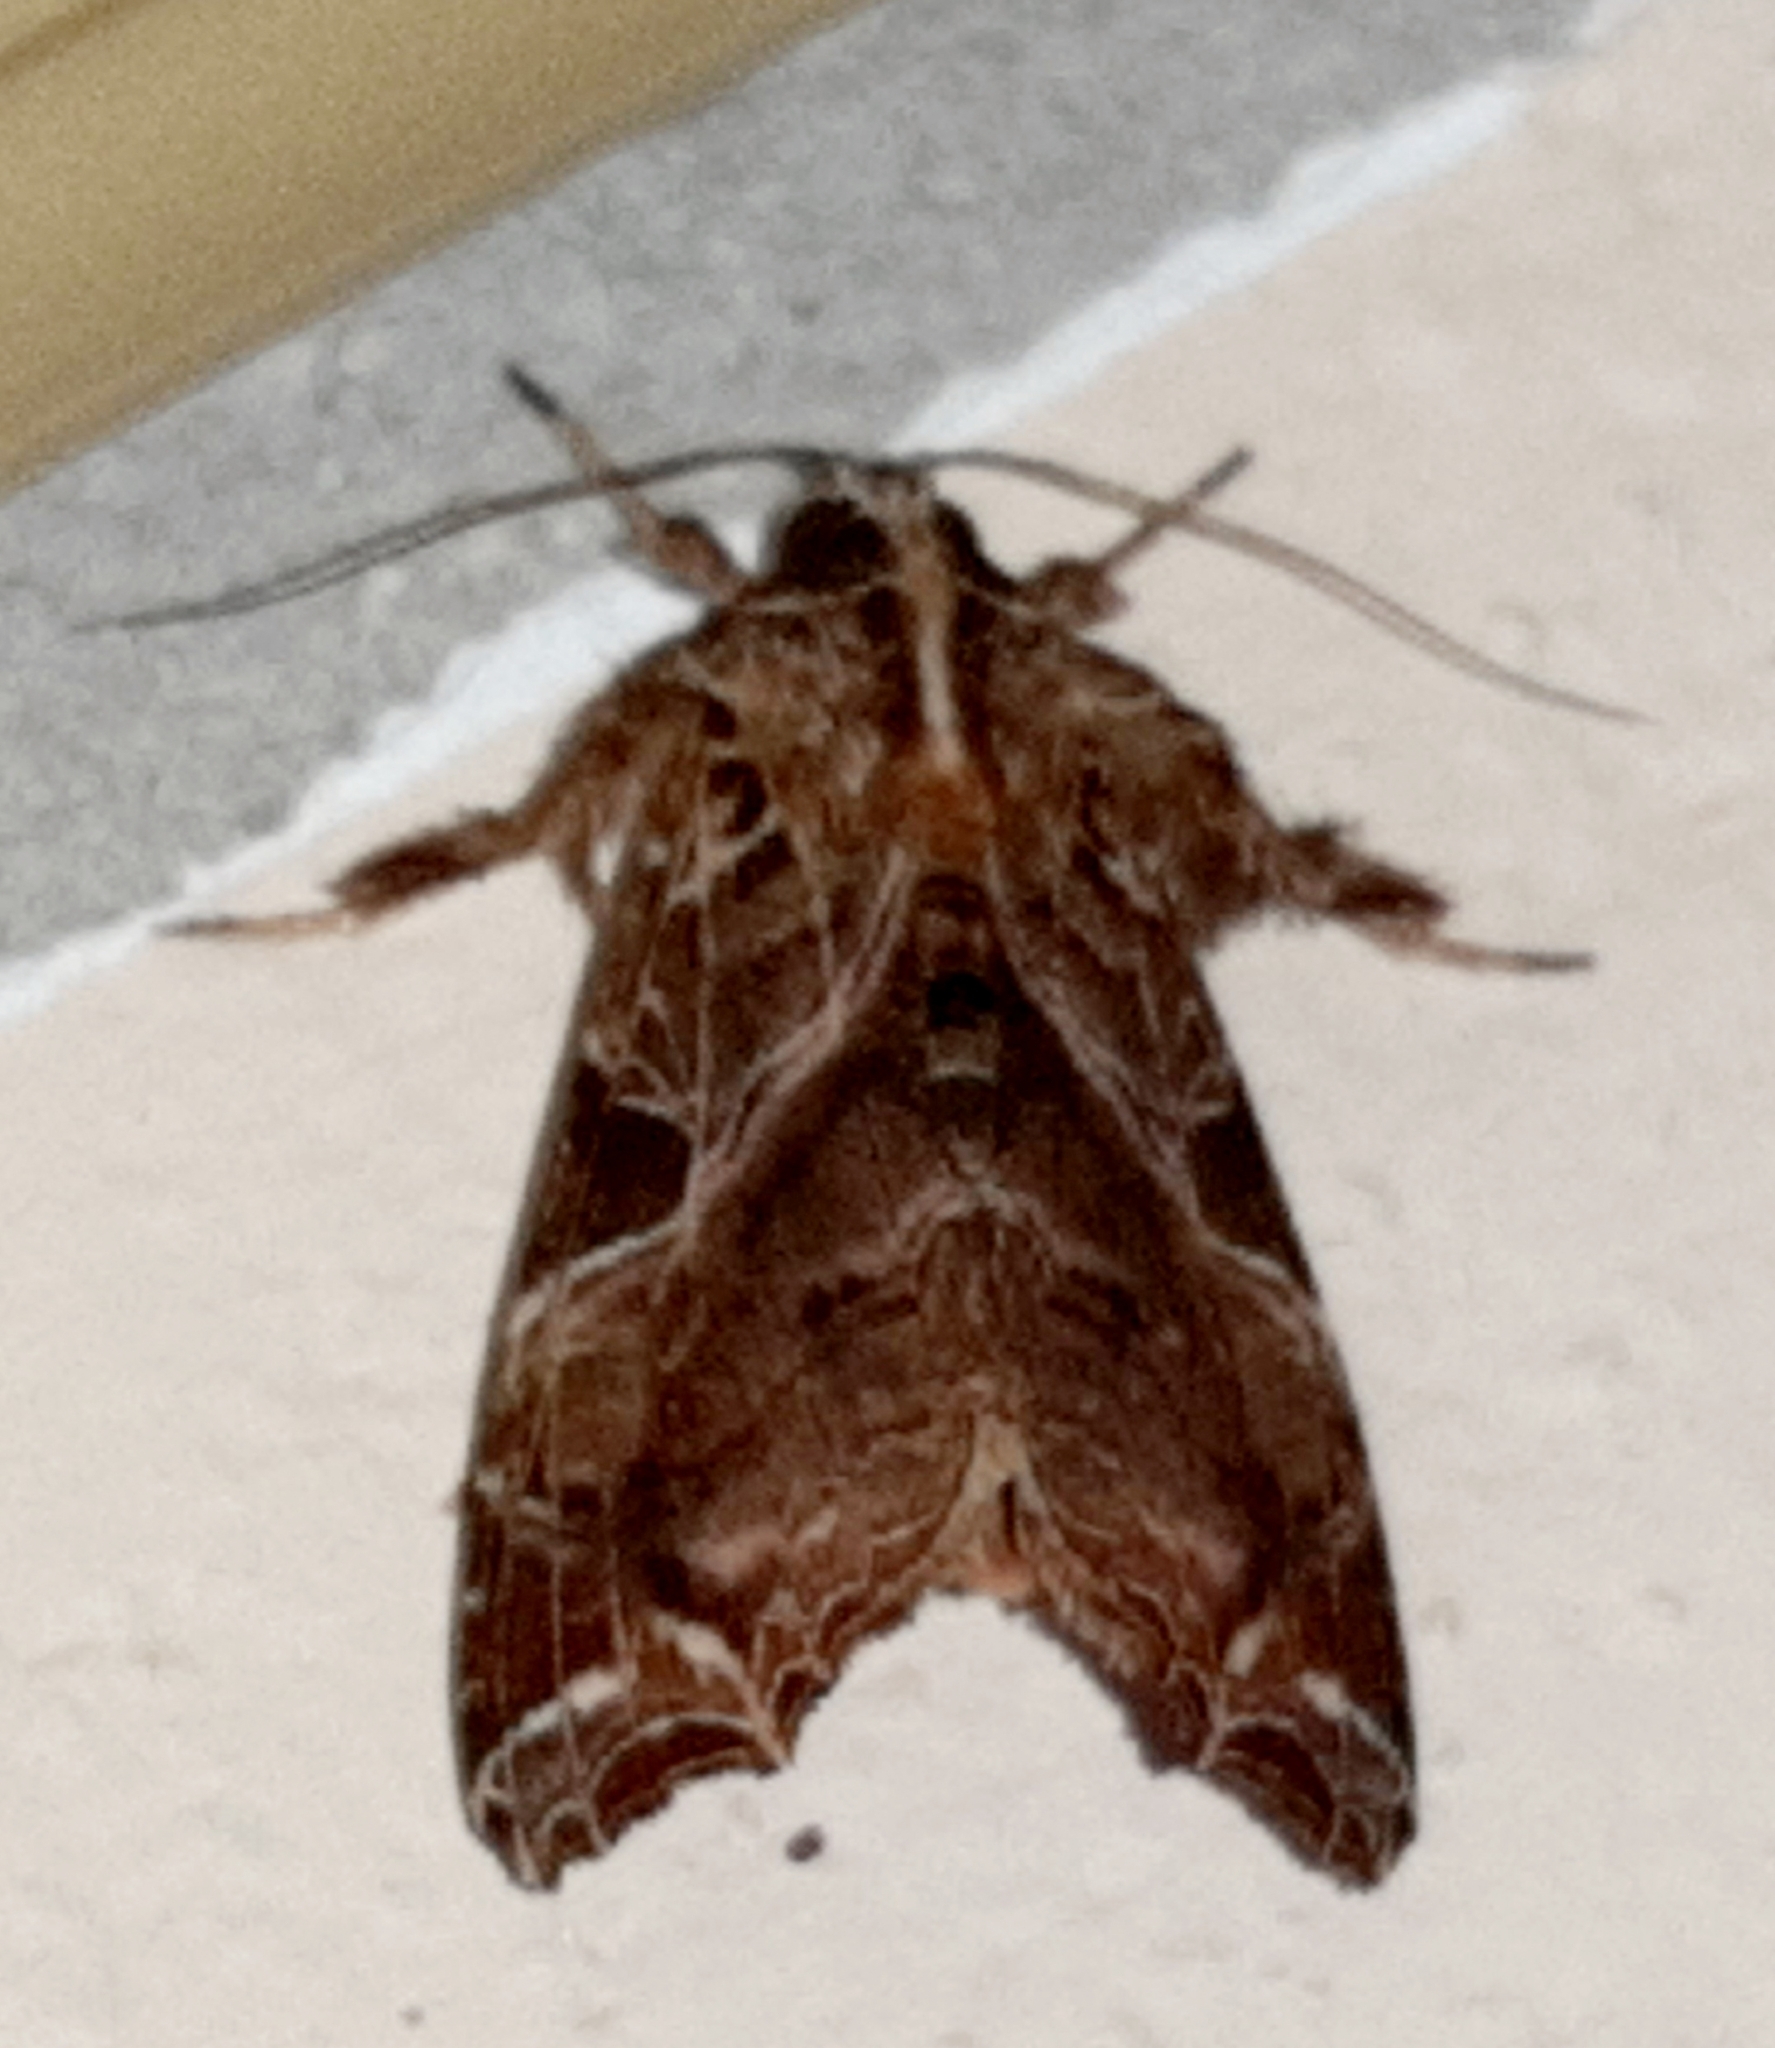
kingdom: Animalia
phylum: Arthropoda
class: Insecta
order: Lepidoptera
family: Noctuidae
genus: Callopistria
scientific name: Callopistria floridensis
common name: Florida fern moth
